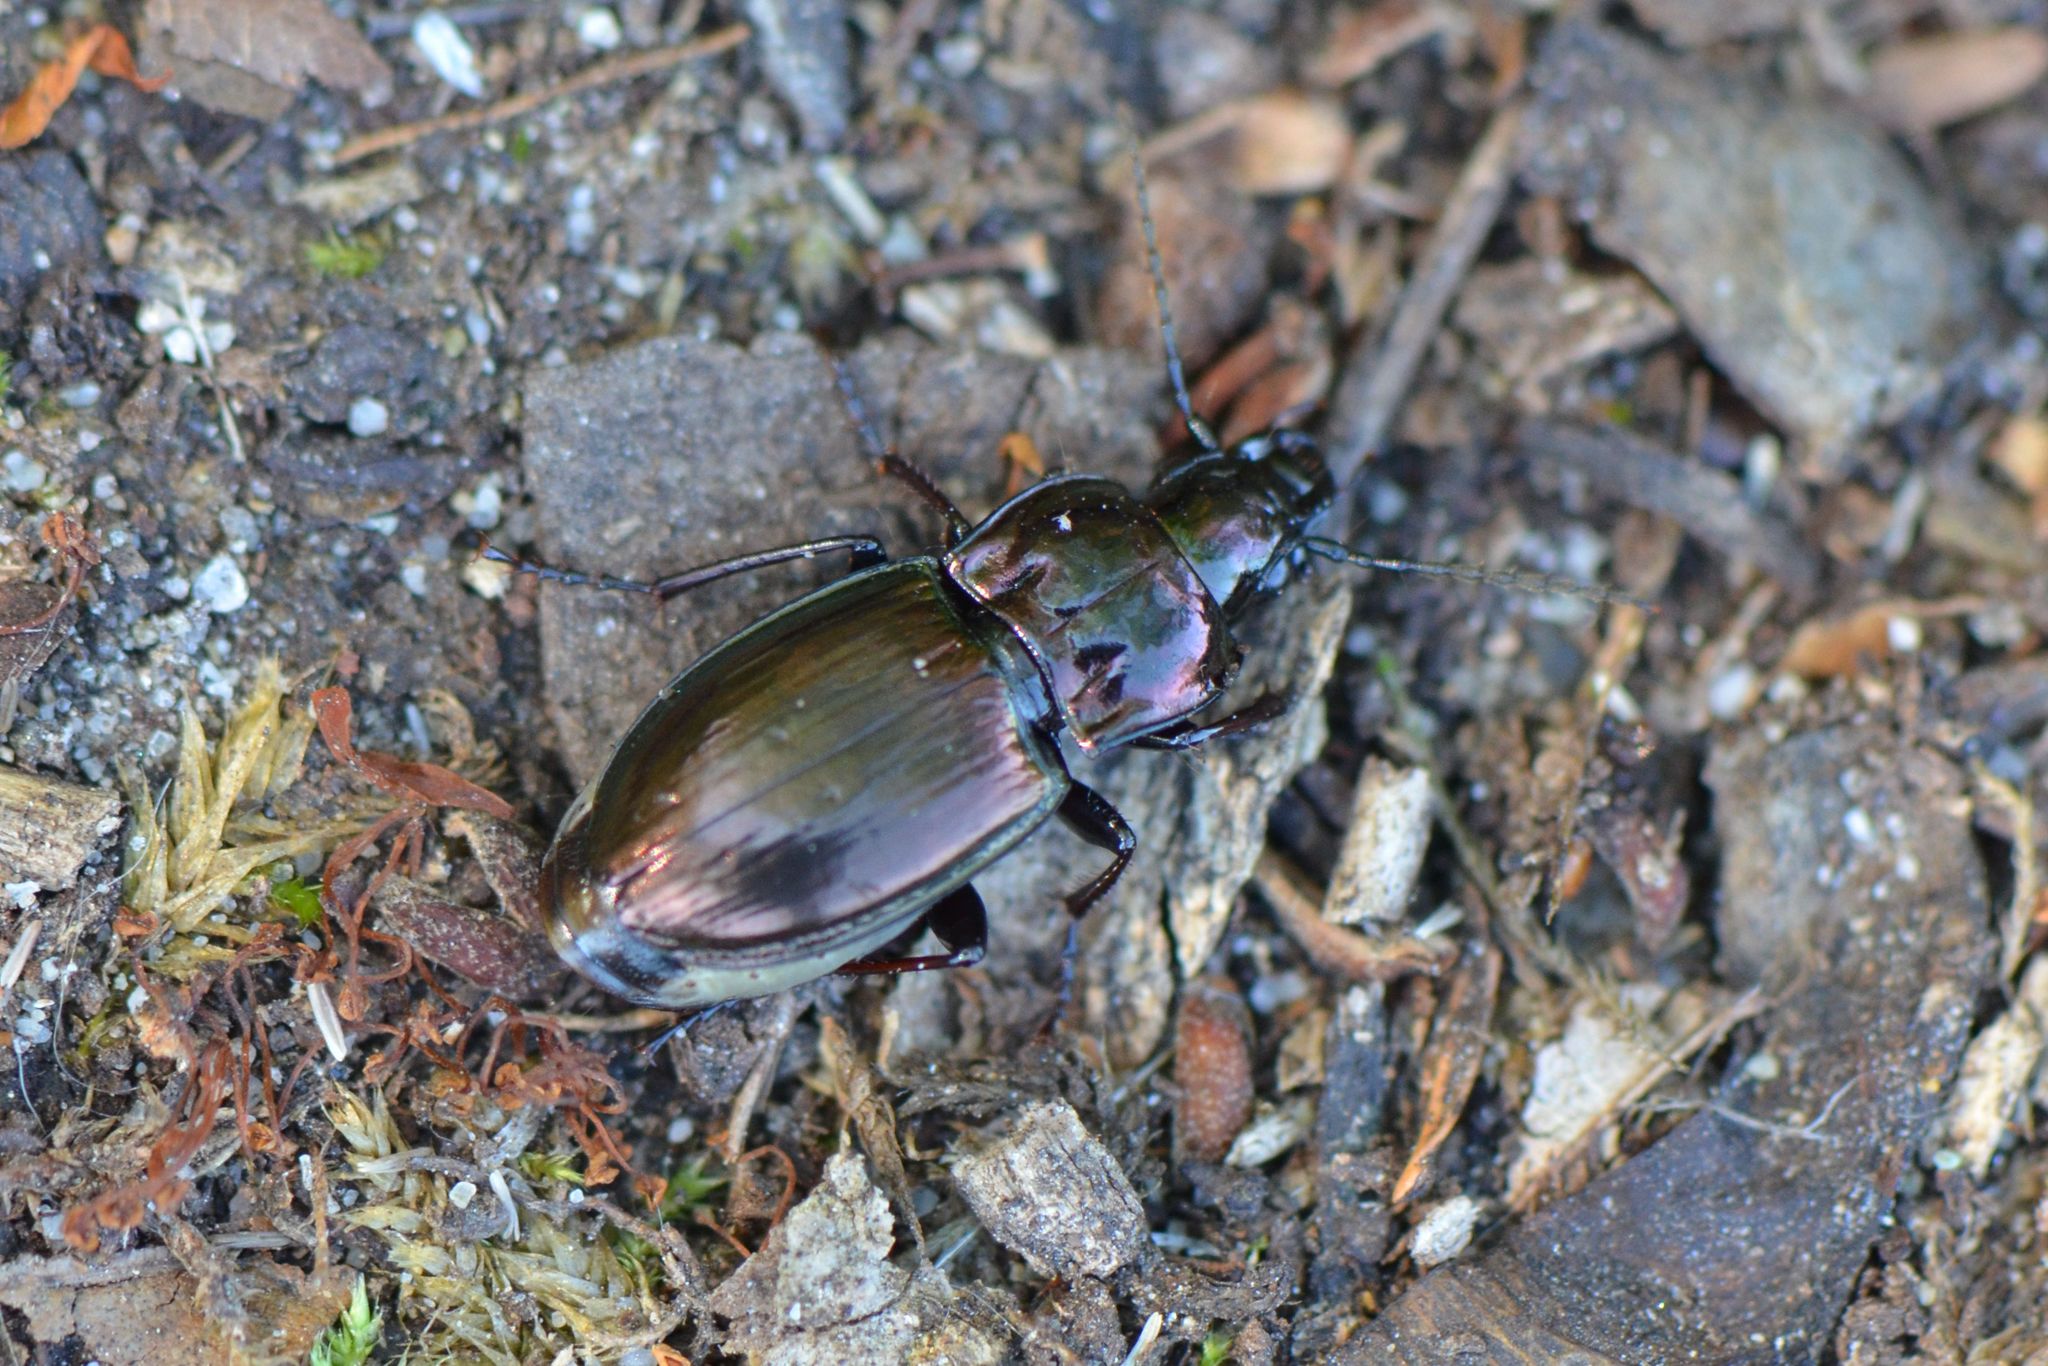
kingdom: Animalia
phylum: Arthropoda
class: Insecta
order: Coleoptera
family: Carabidae
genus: Pterostichus
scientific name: Pterostichus burmeisteri
